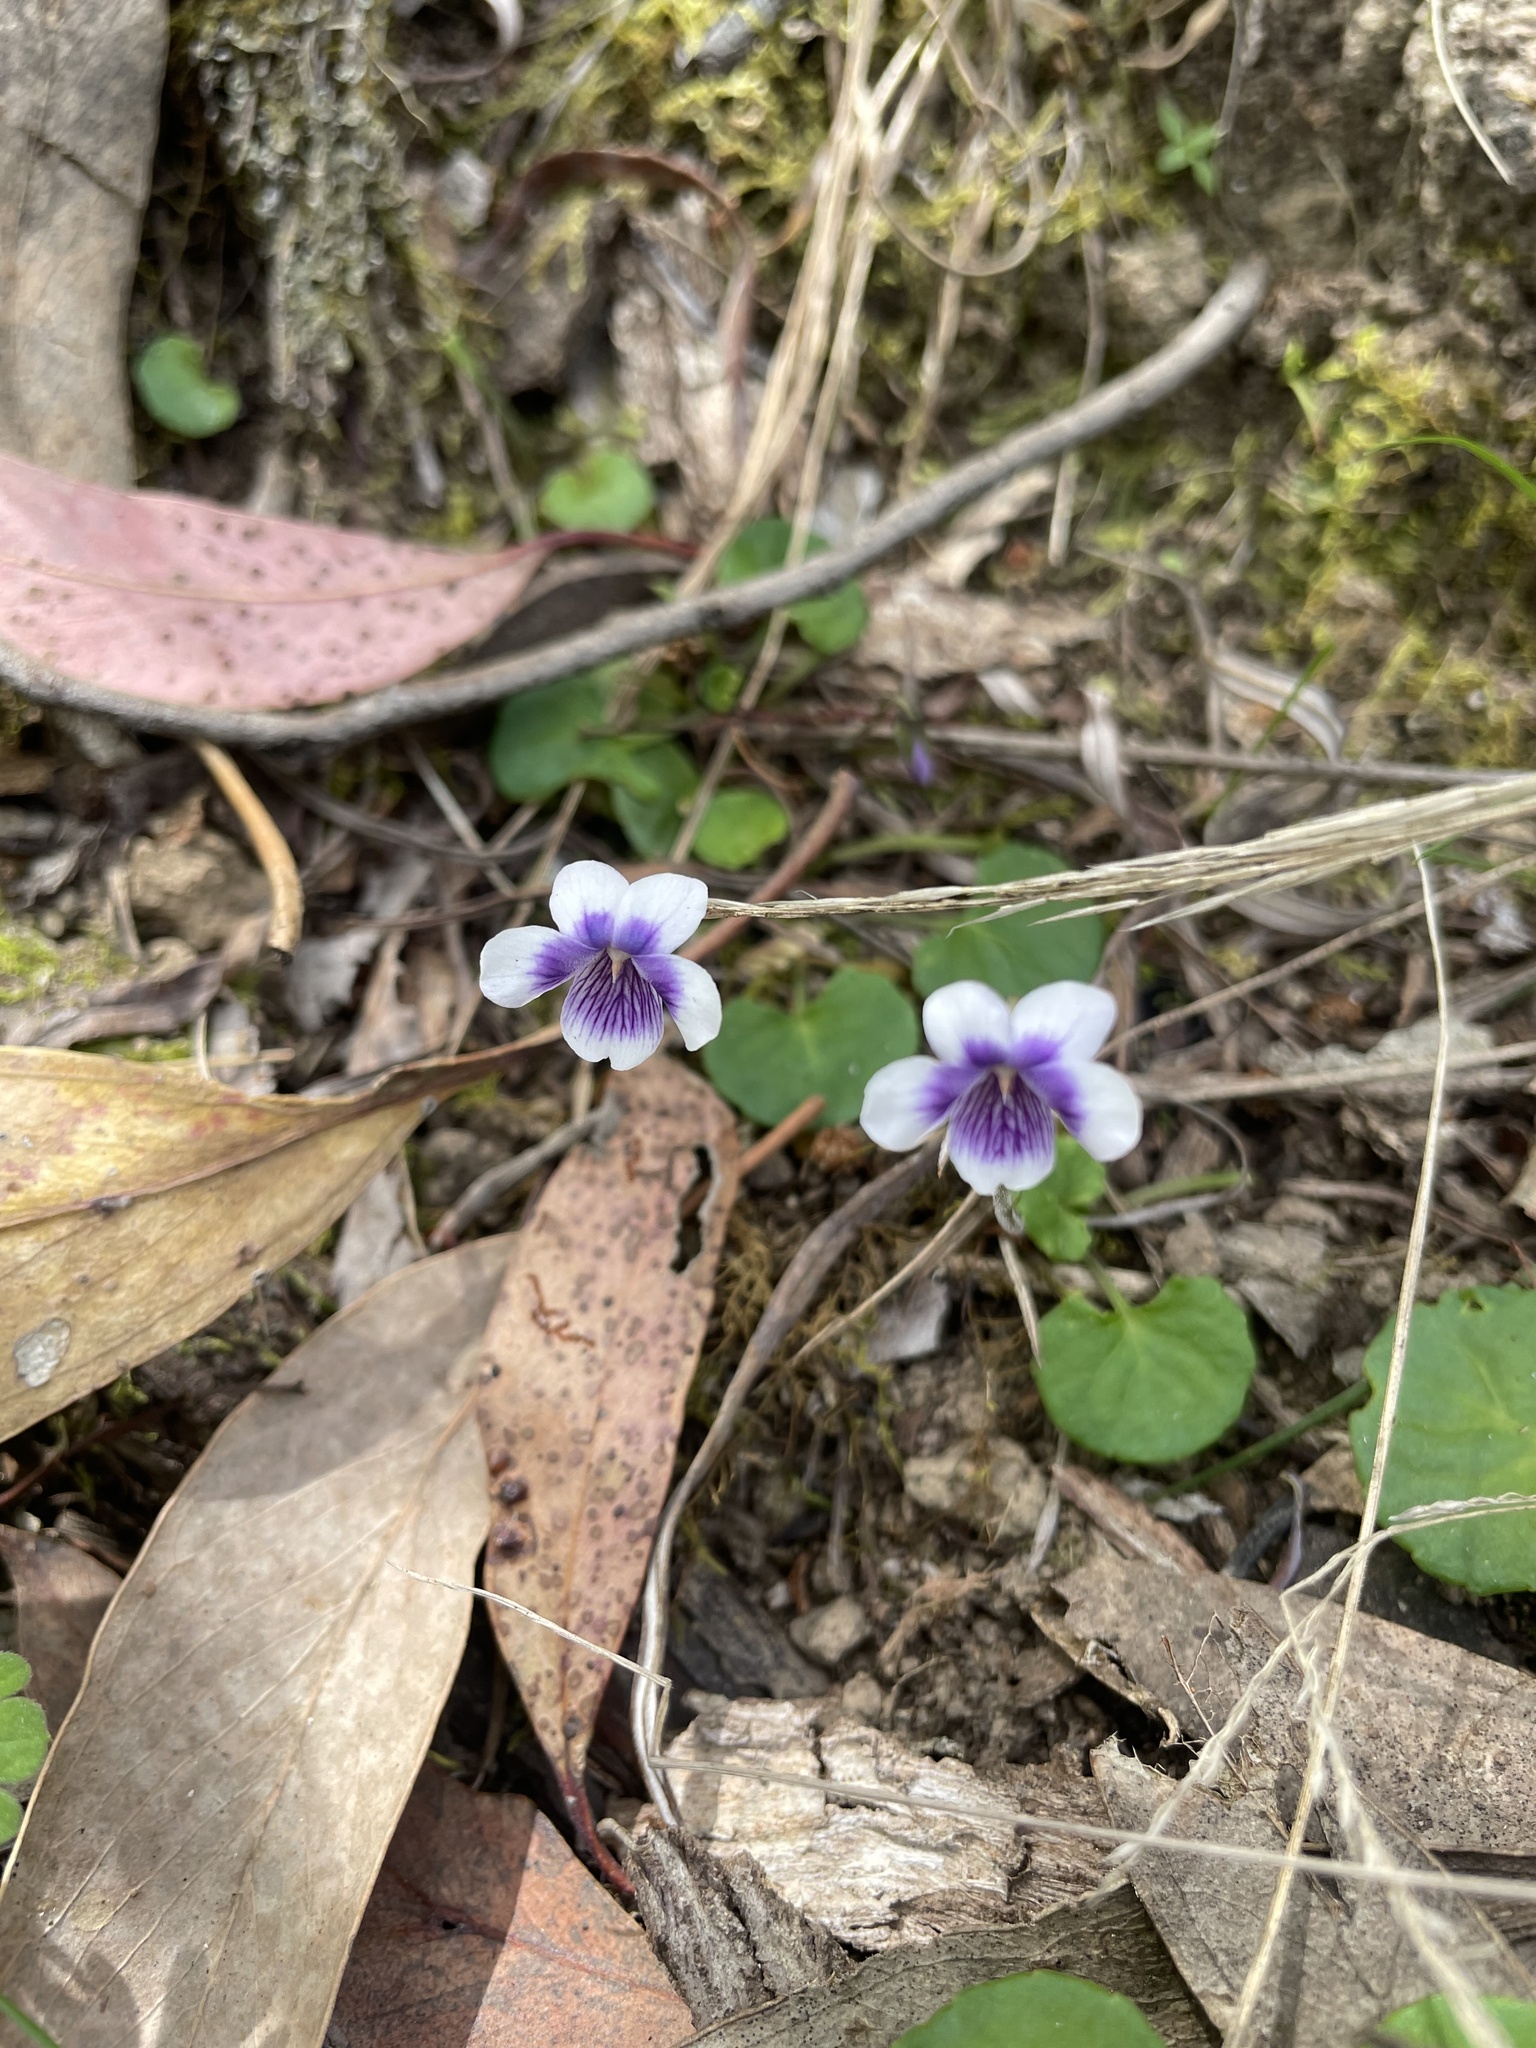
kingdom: Plantae
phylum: Tracheophyta
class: Magnoliopsida
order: Malpighiales
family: Violaceae
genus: Viola
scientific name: Viola hederacea
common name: Australian violet
